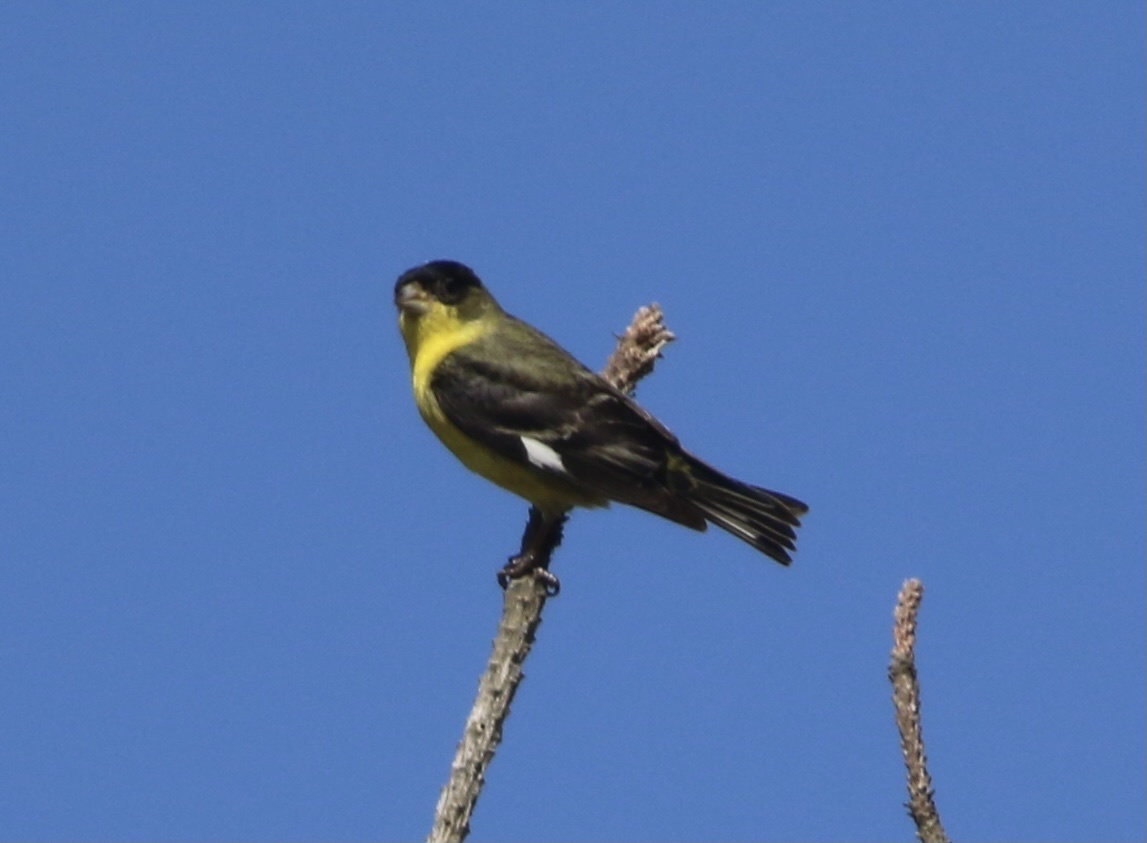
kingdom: Animalia
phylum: Chordata
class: Aves
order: Passeriformes
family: Fringillidae
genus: Spinus
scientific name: Spinus psaltria
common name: Lesser goldfinch
